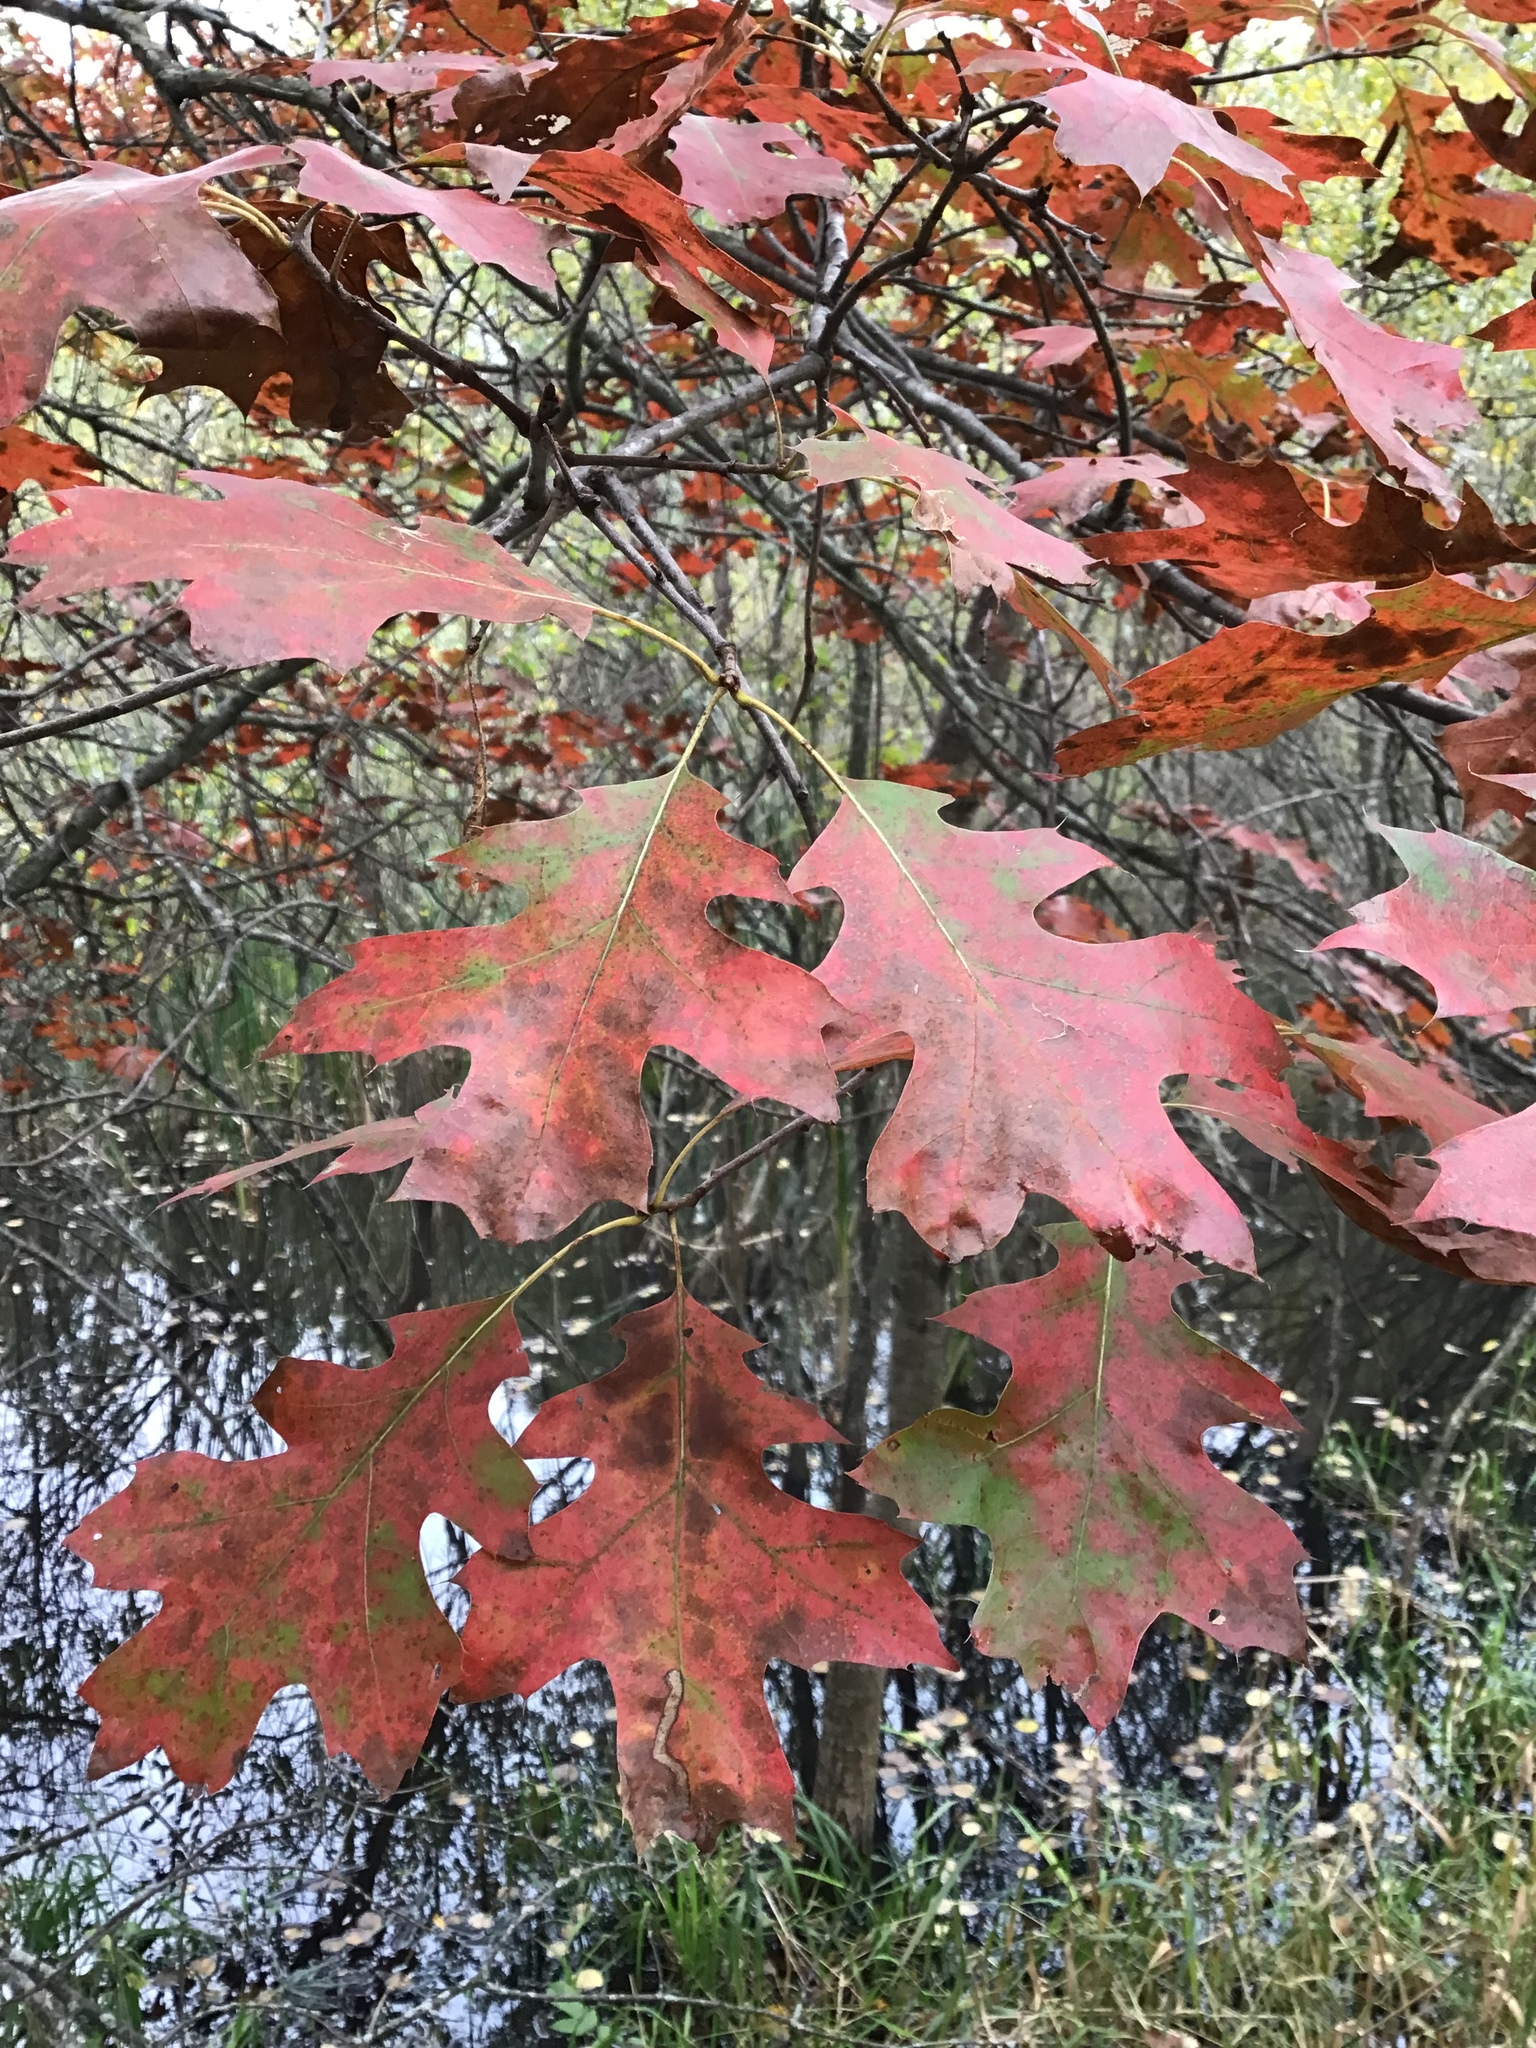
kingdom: Plantae
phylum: Tracheophyta
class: Magnoliopsida
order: Fagales
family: Fagaceae
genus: Quercus
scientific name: Quercus rubra
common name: Red oak
